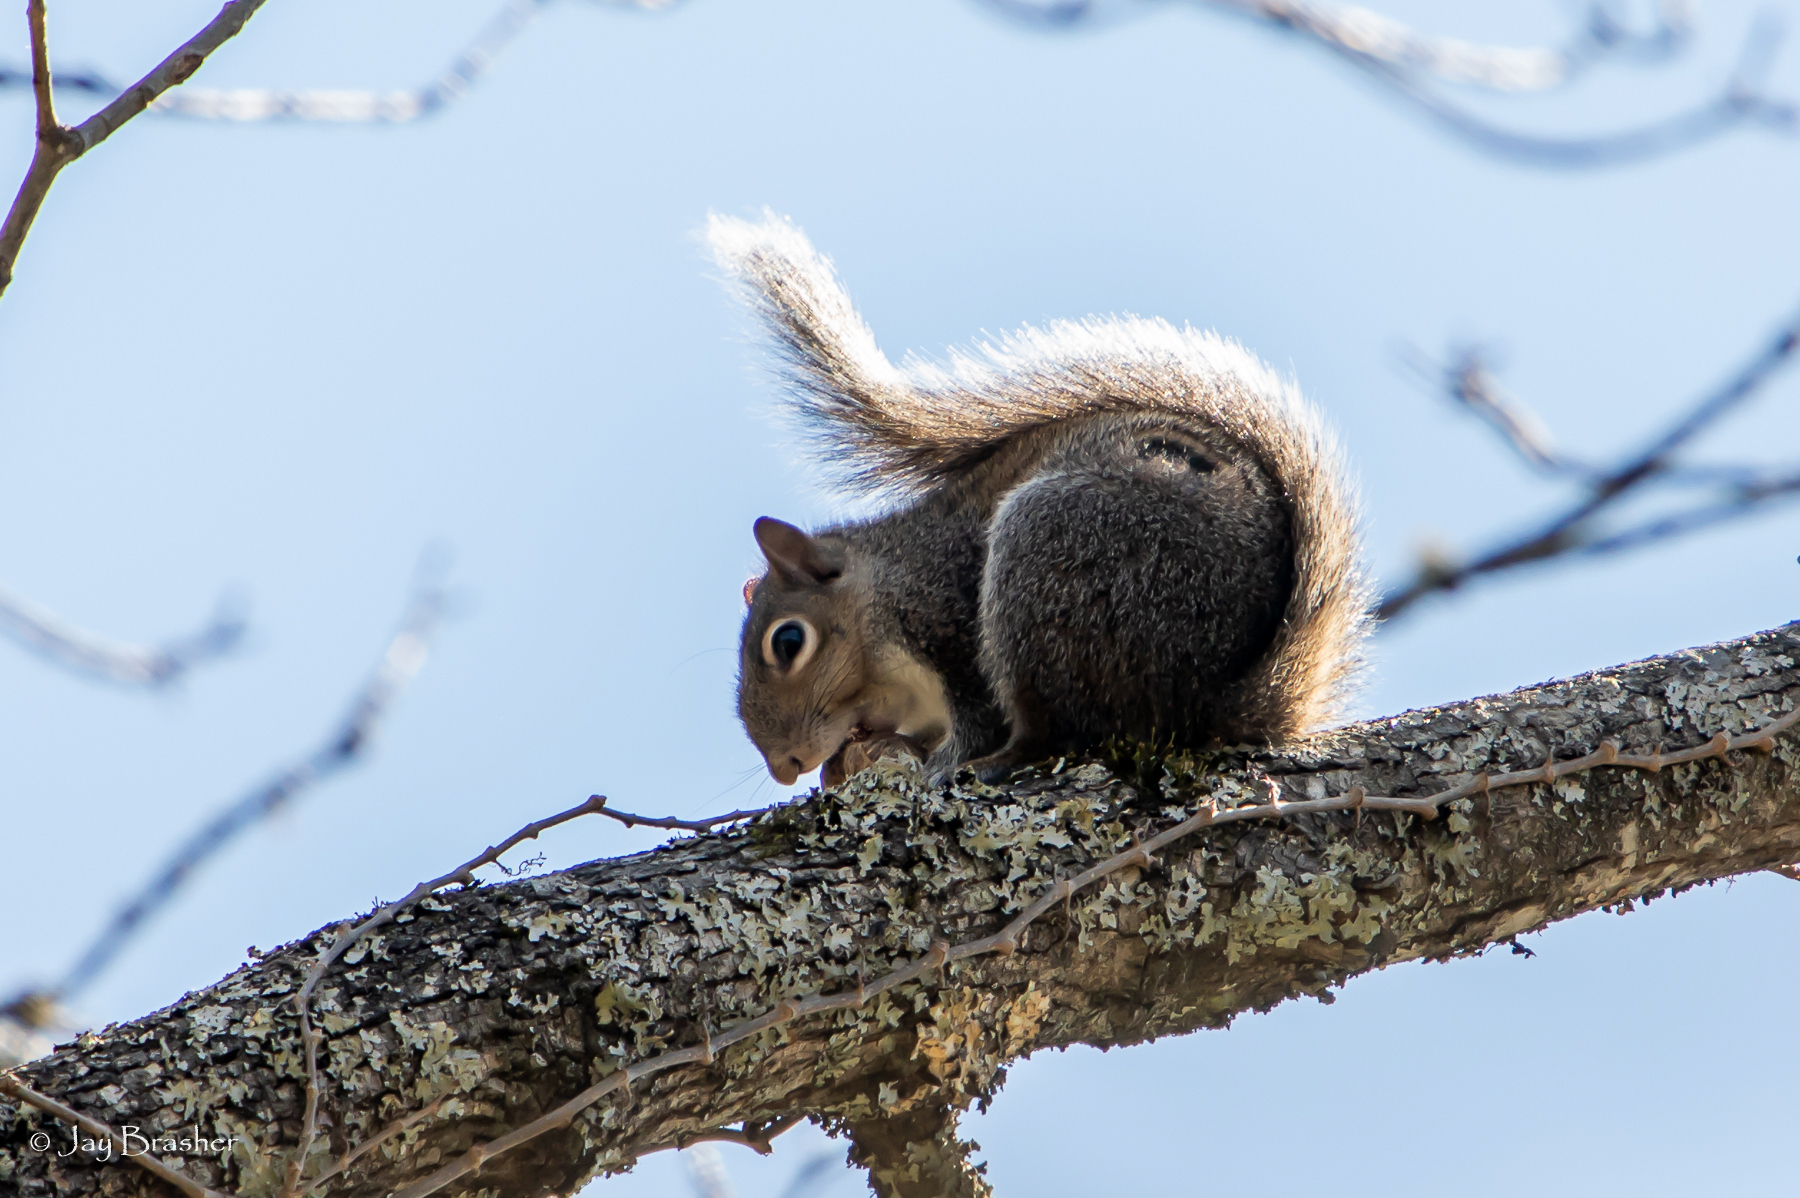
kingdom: Animalia
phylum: Chordata
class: Mammalia
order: Rodentia
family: Sciuridae
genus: Sciurus
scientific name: Sciurus carolinensis
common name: Eastern gray squirrel
